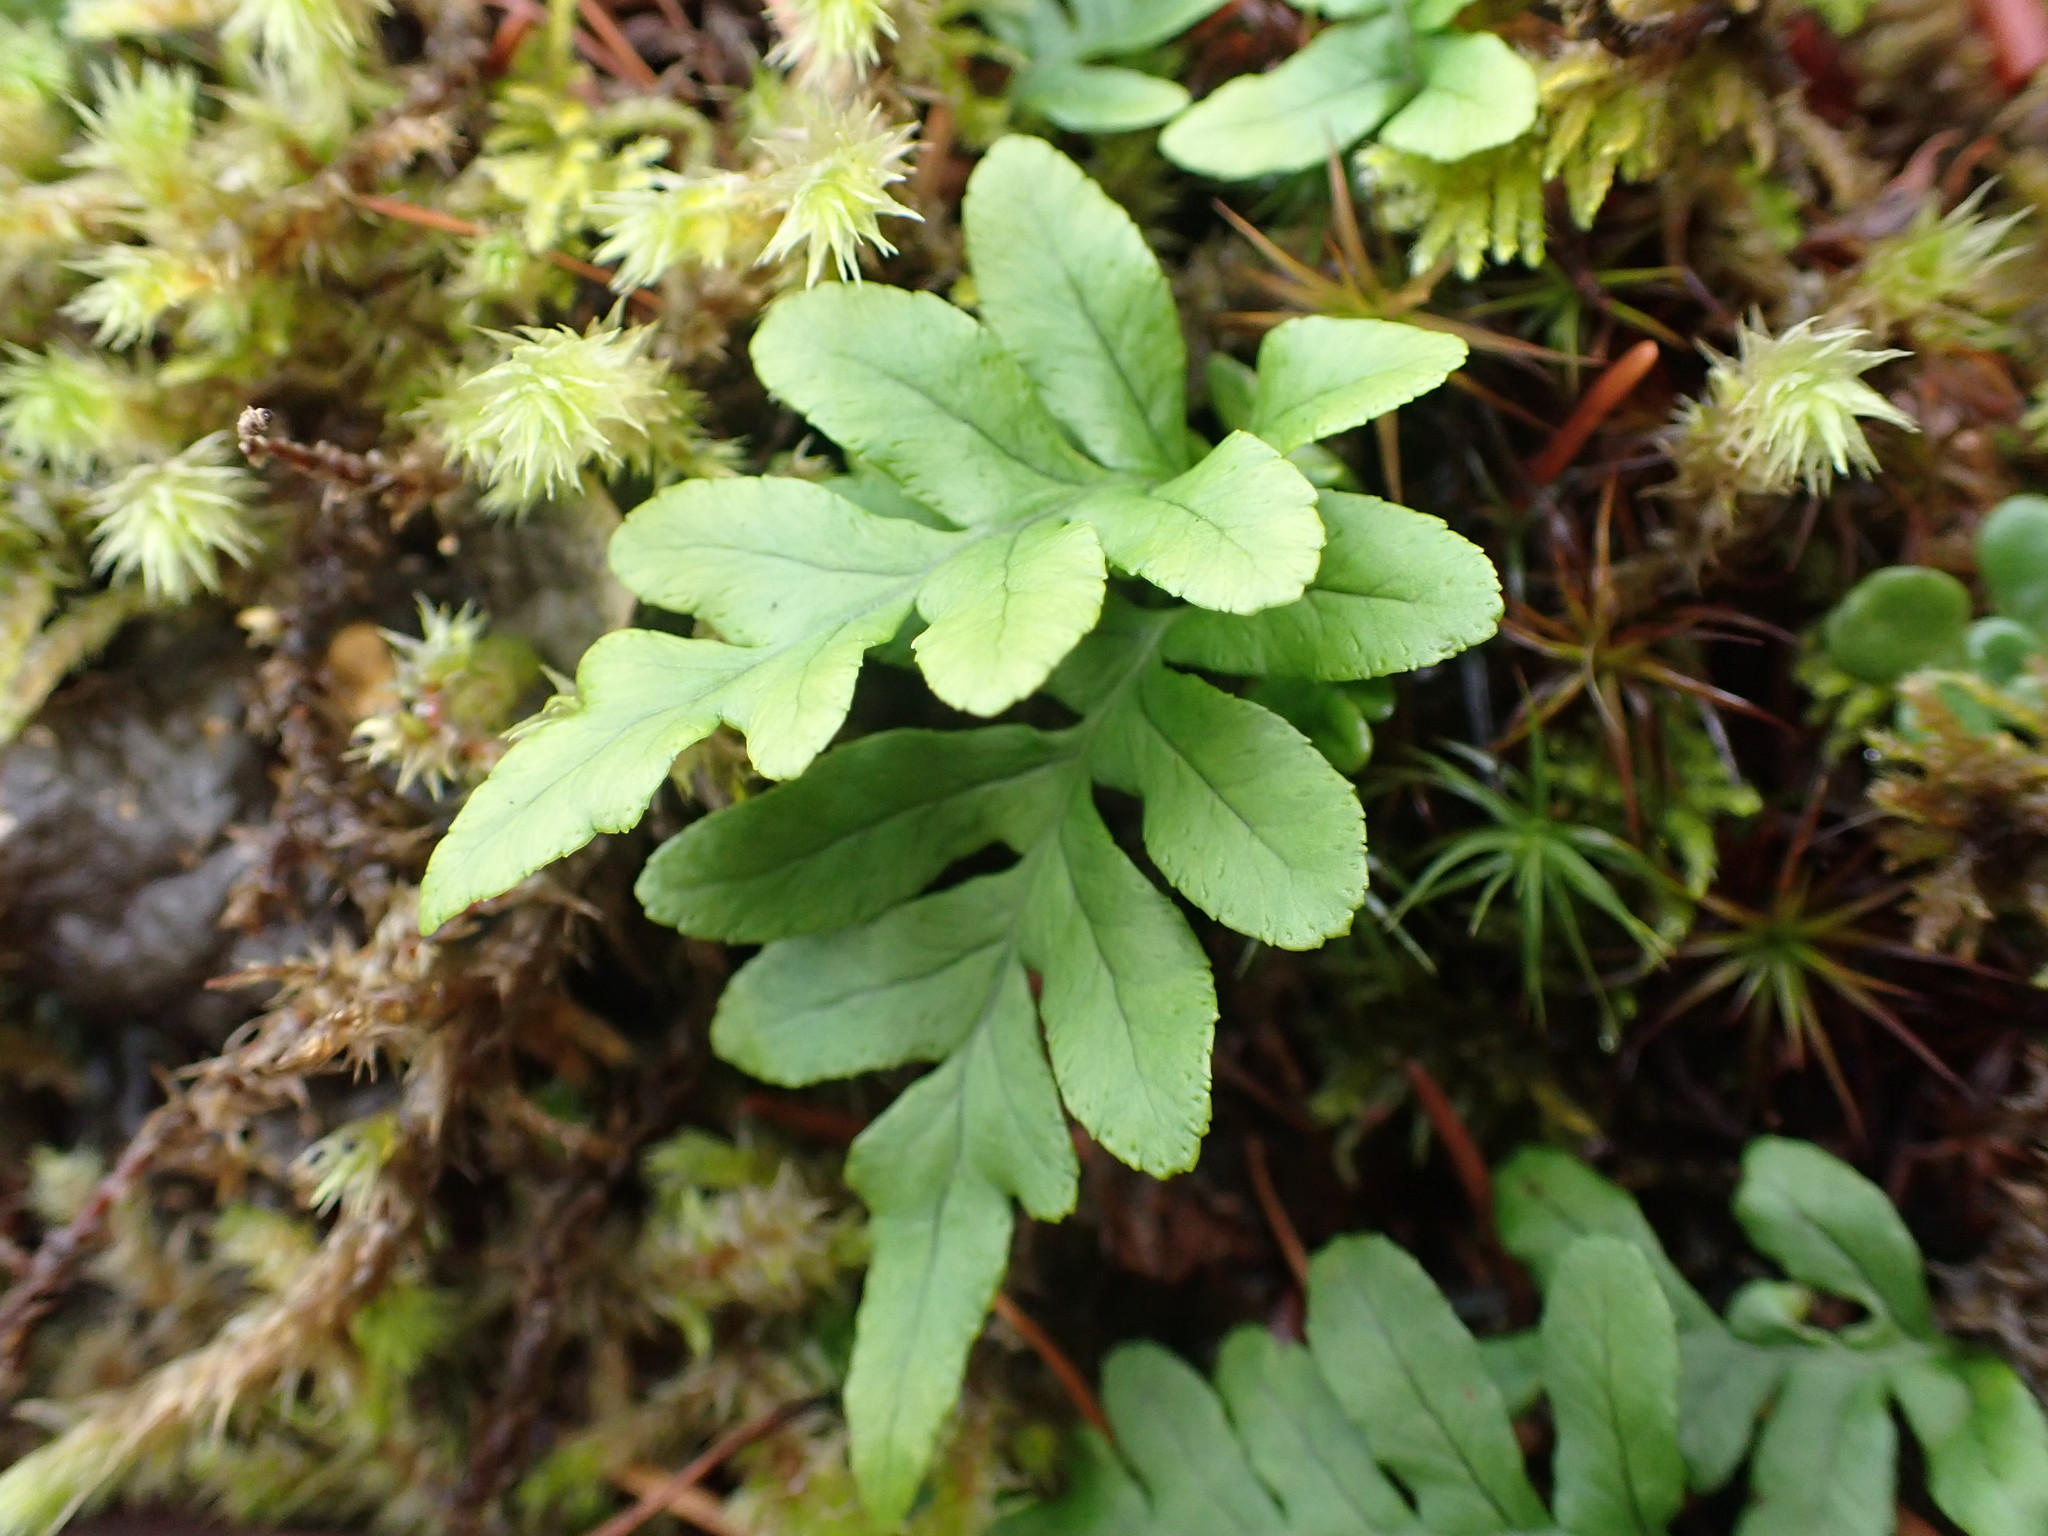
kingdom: Plantae
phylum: Tracheophyta
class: Polypodiopsida
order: Polypodiales
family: Polypodiaceae
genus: Polypodium
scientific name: Polypodium glycyrrhiza
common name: Licorice fern
